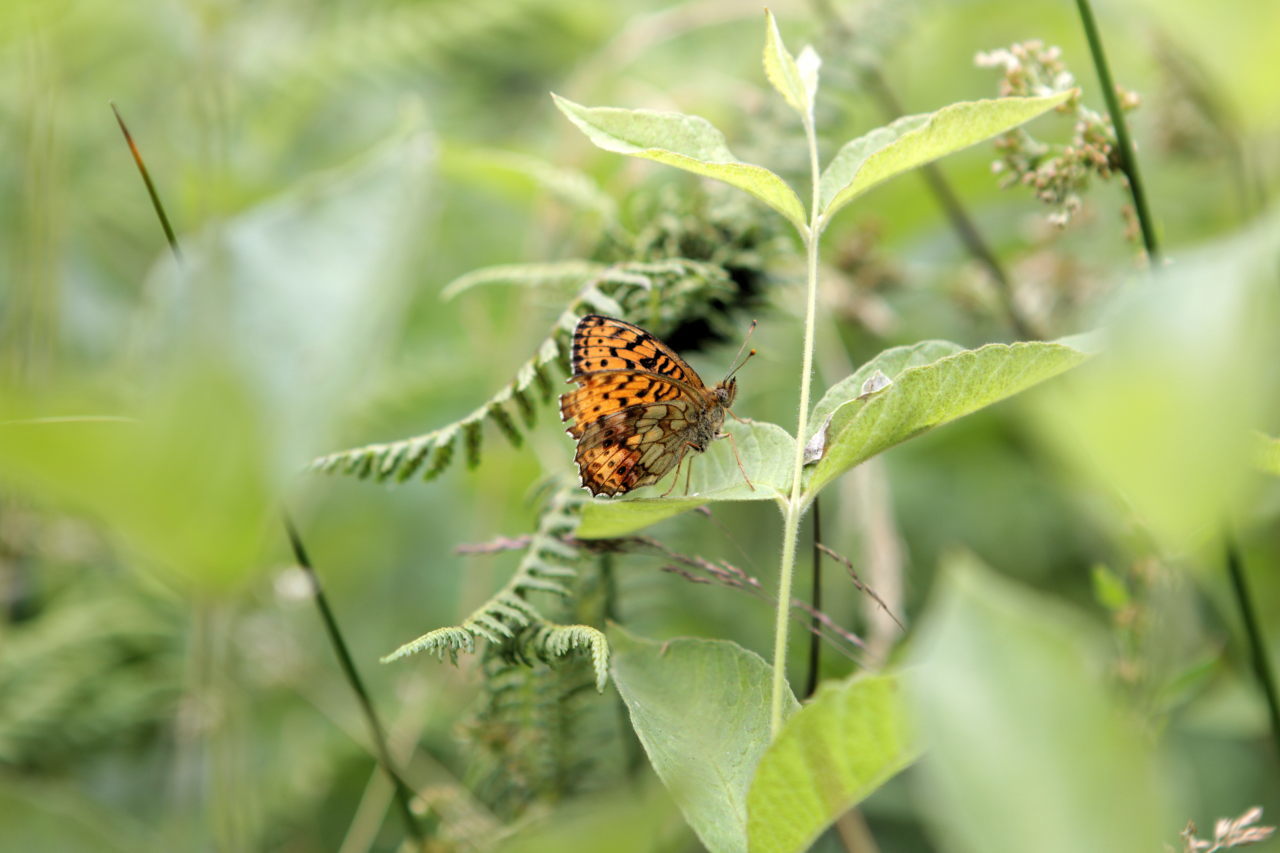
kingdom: Animalia
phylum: Arthropoda
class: Insecta
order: Lepidoptera
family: Nymphalidae
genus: Brenthis
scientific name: Brenthis ino
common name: Lesser marbled fritillary
